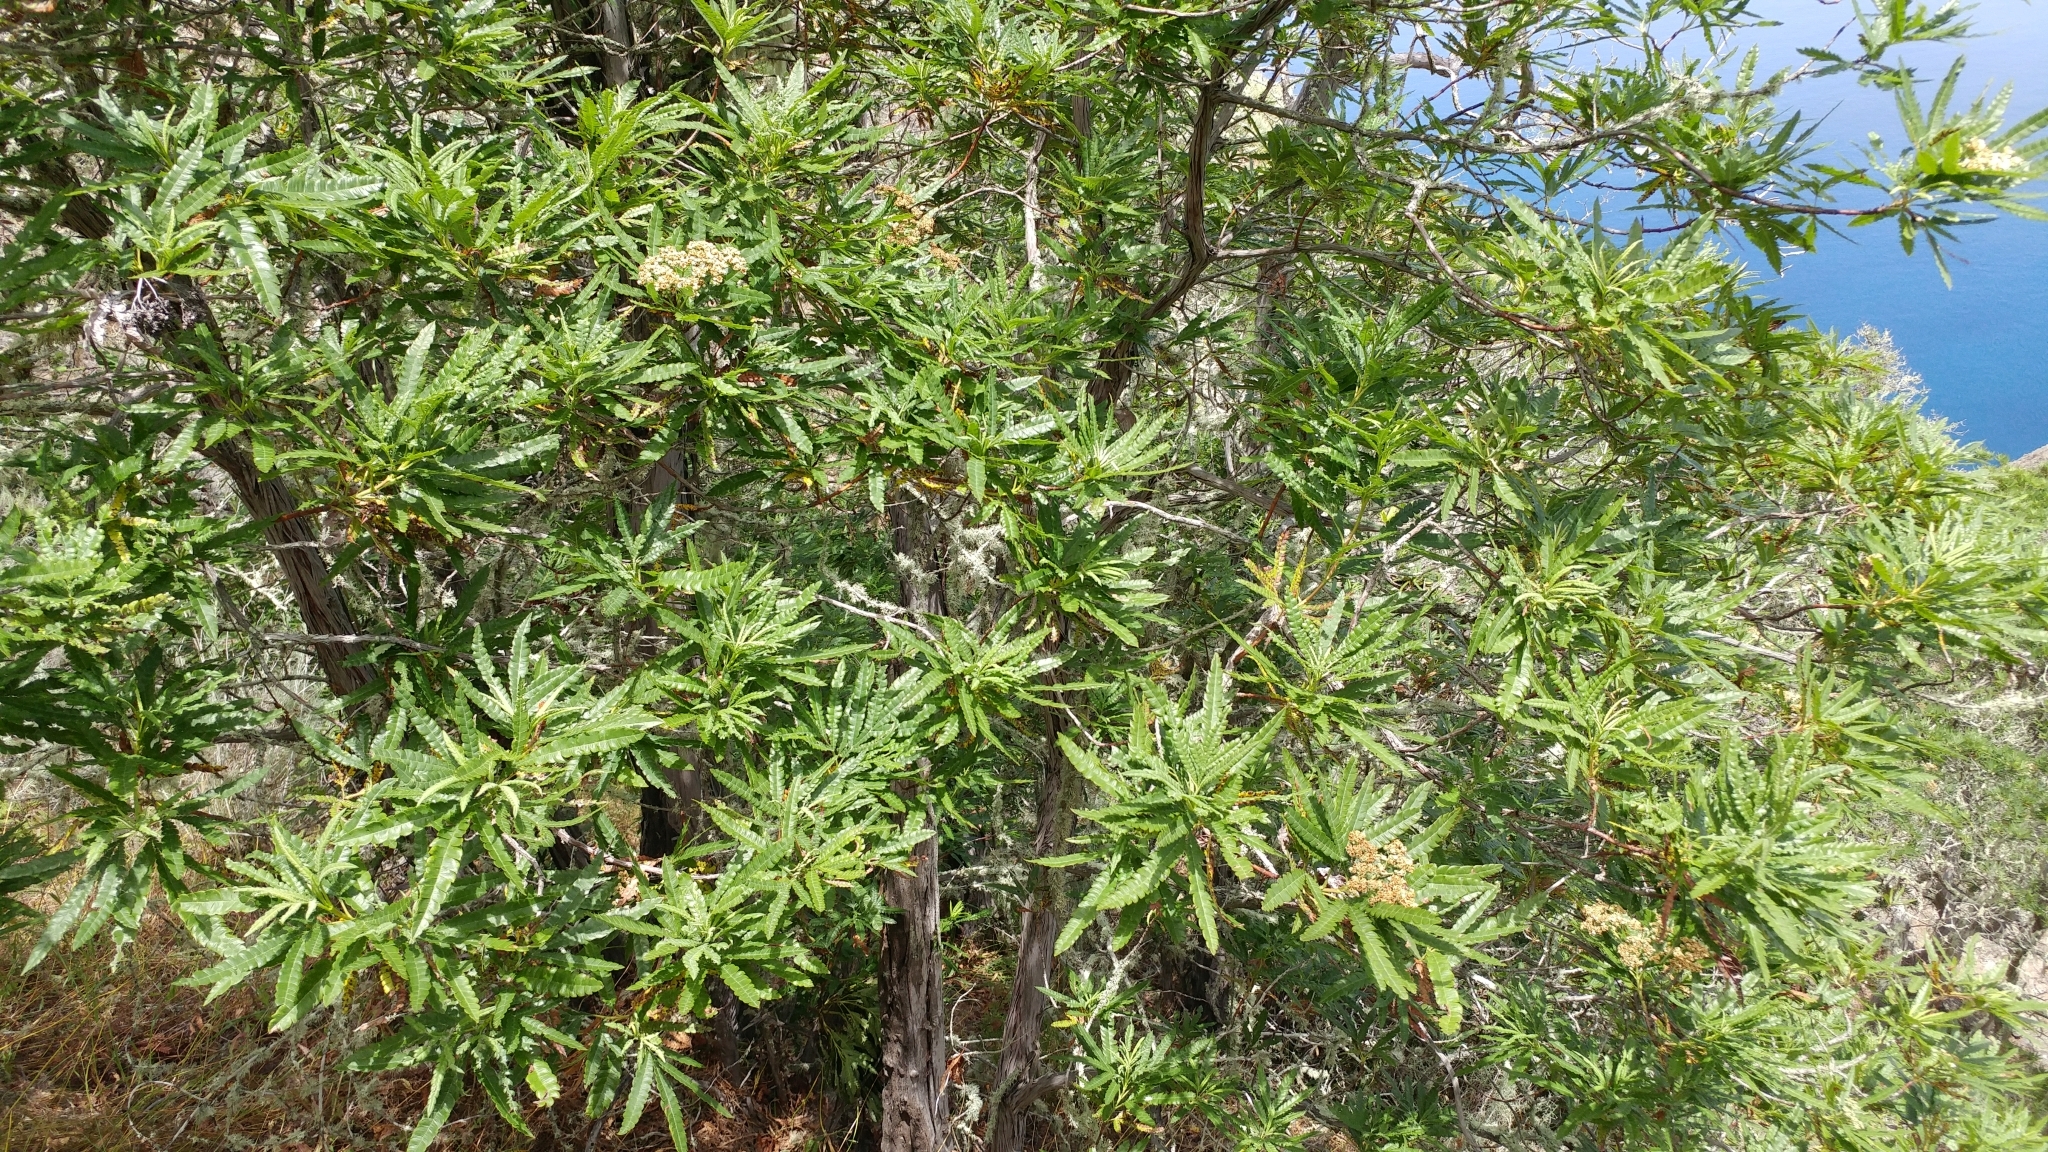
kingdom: Plantae
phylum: Tracheophyta
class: Magnoliopsida
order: Rosales
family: Rosaceae
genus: Lyonothamnus
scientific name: Lyonothamnus floribundus
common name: Catalina ironwood
